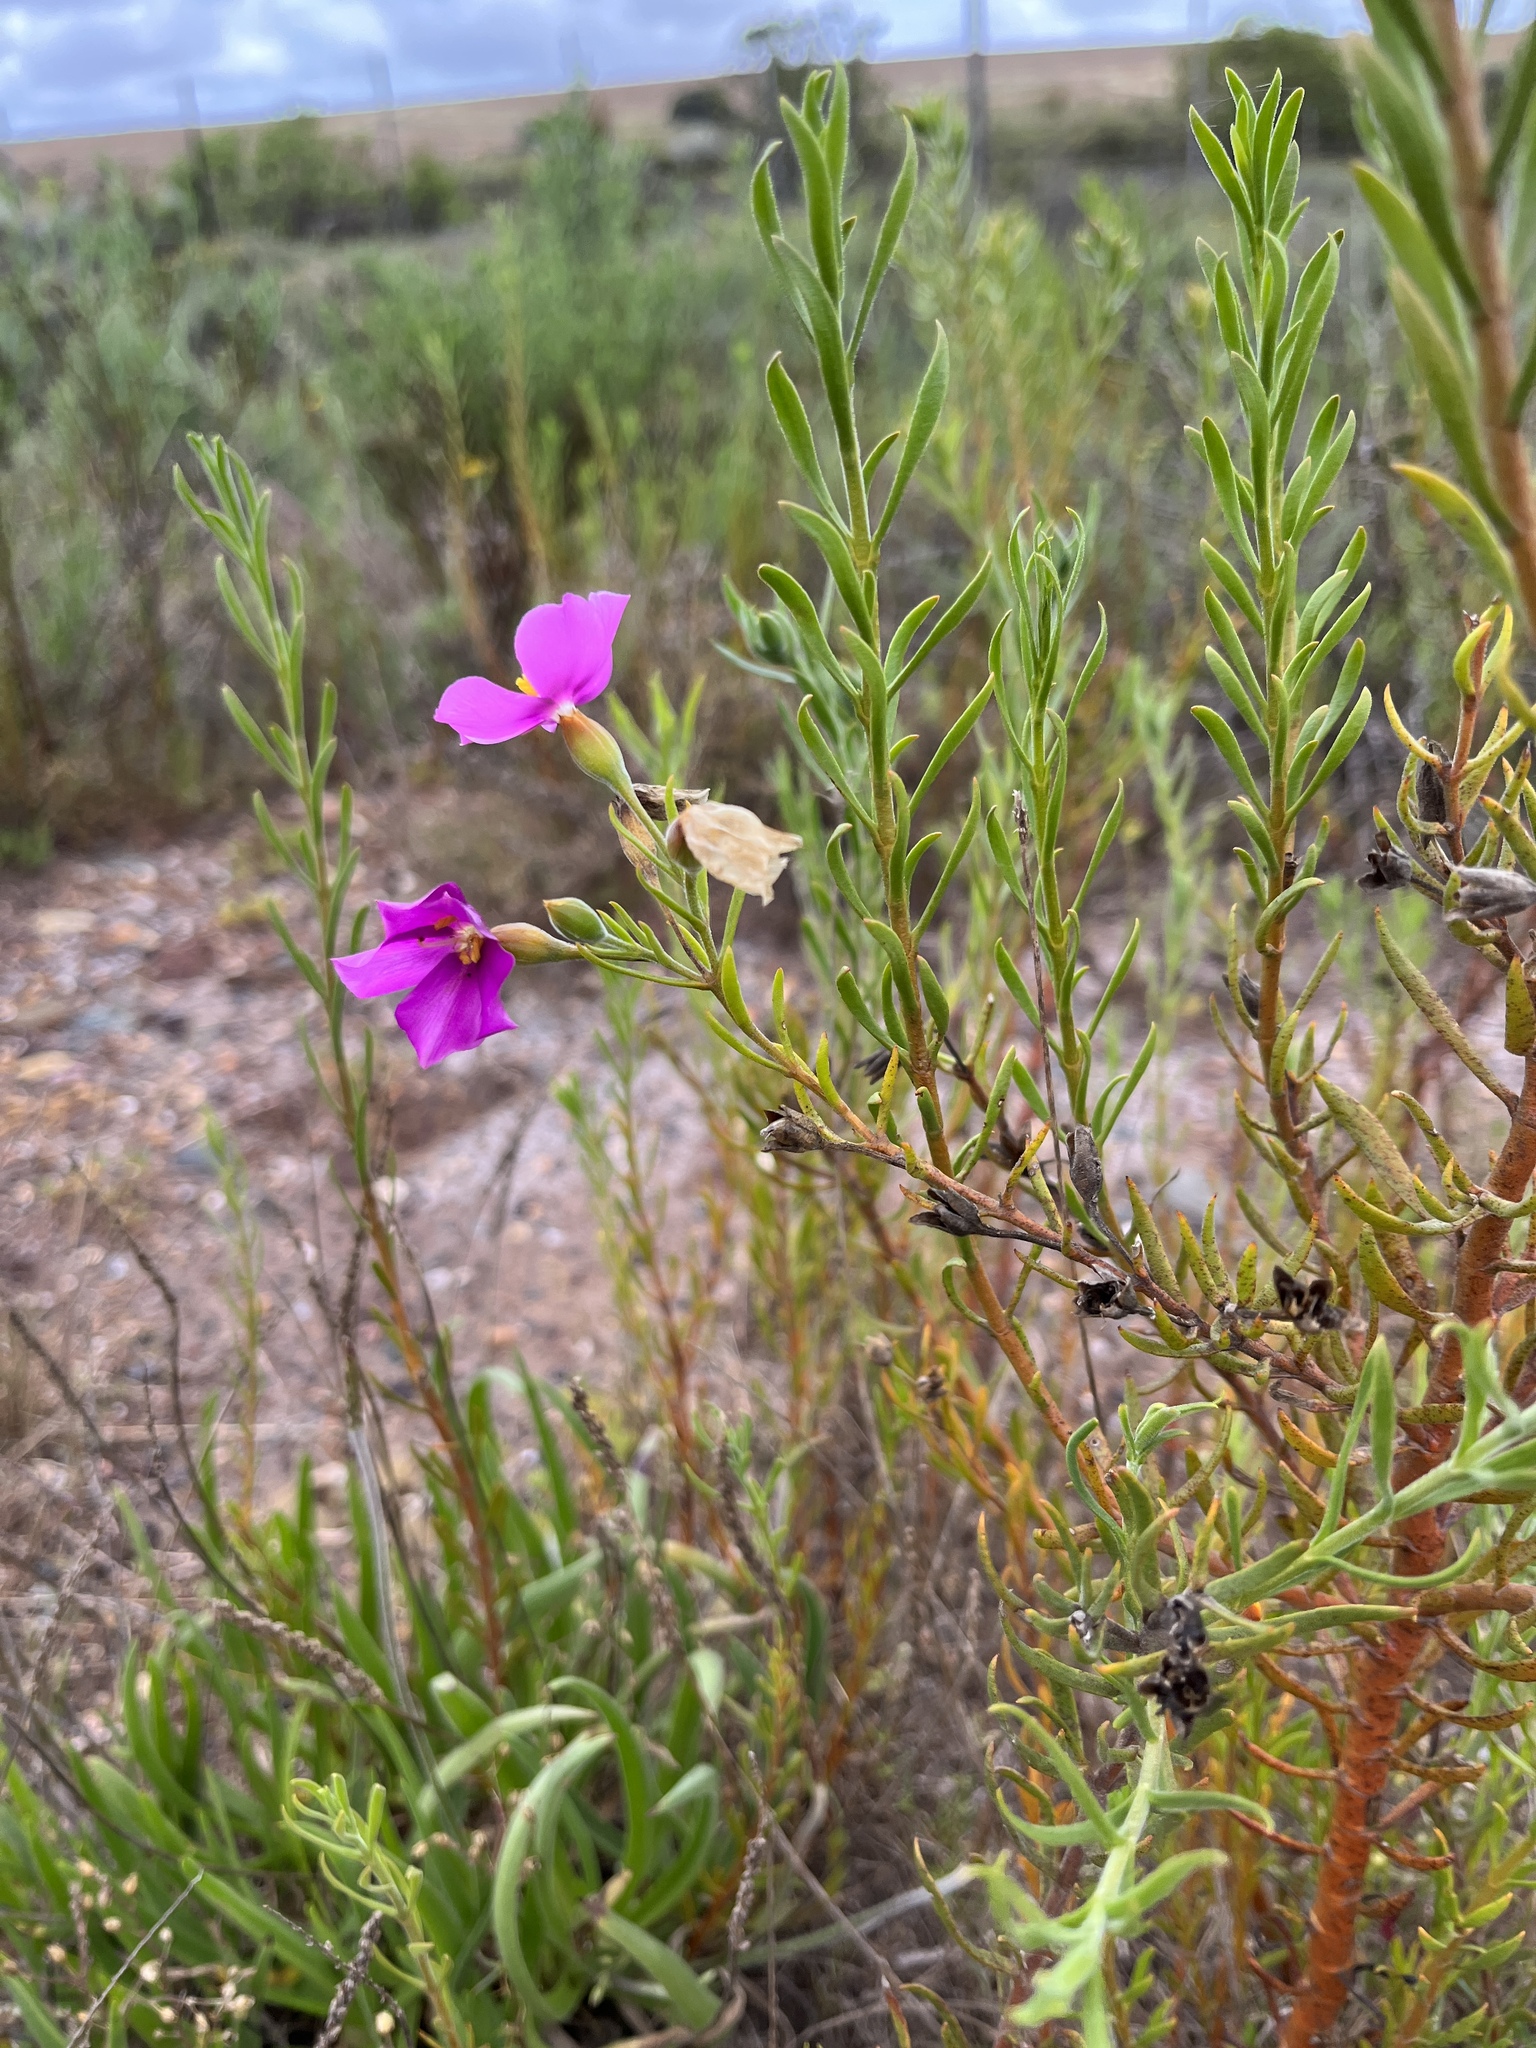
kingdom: Plantae
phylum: Tracheophyta
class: Magnoliopsida
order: Gentianales
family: Gentianaceae
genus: Orphium
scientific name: Orphium frutescens
